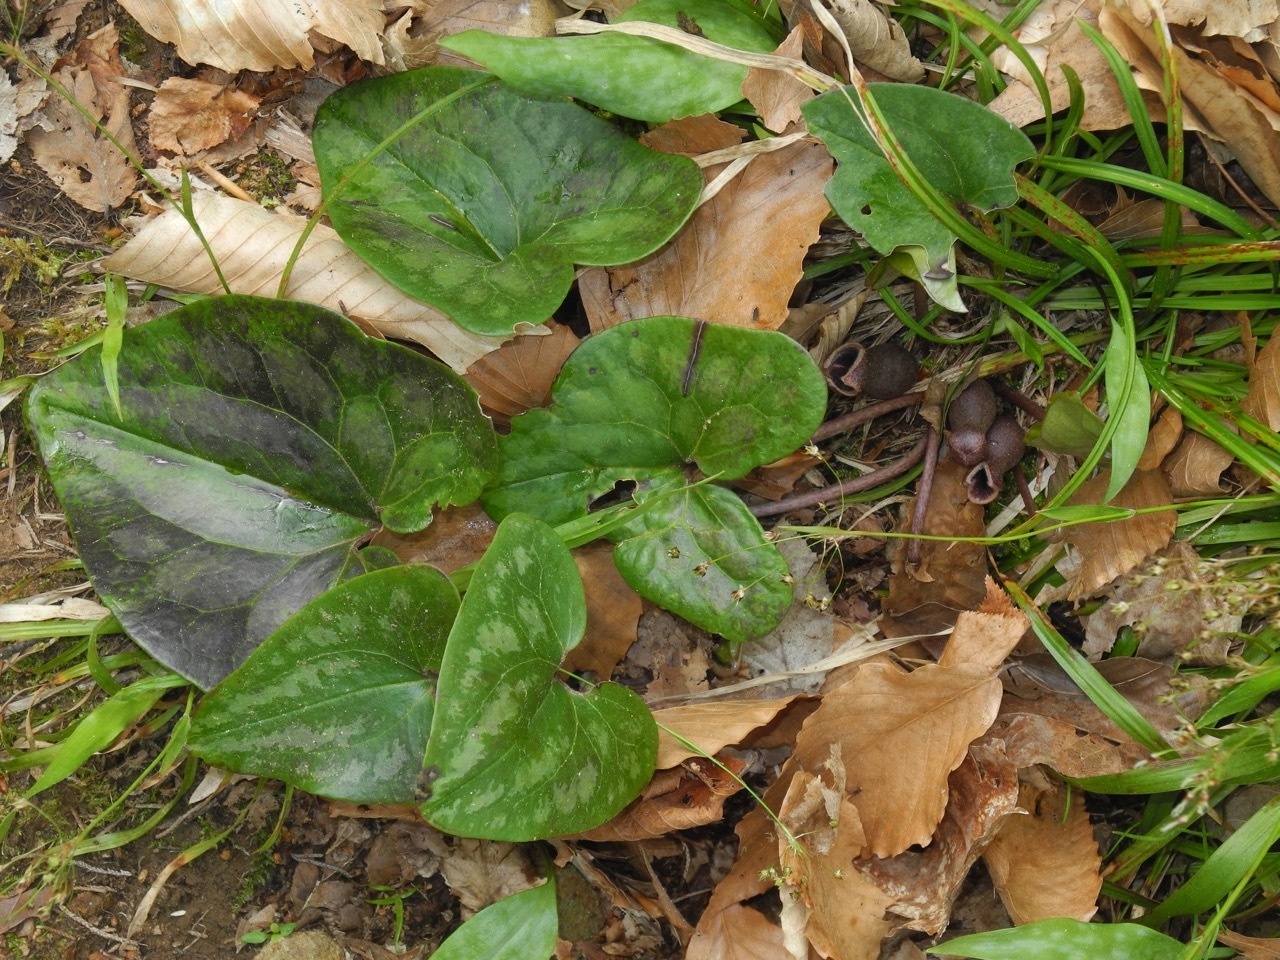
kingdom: Plantae
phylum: Tracheophyta
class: Magnoliopsida
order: Piperales
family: Aristolochiaceae
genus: Hexastylis
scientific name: Hexastylis arifolia
